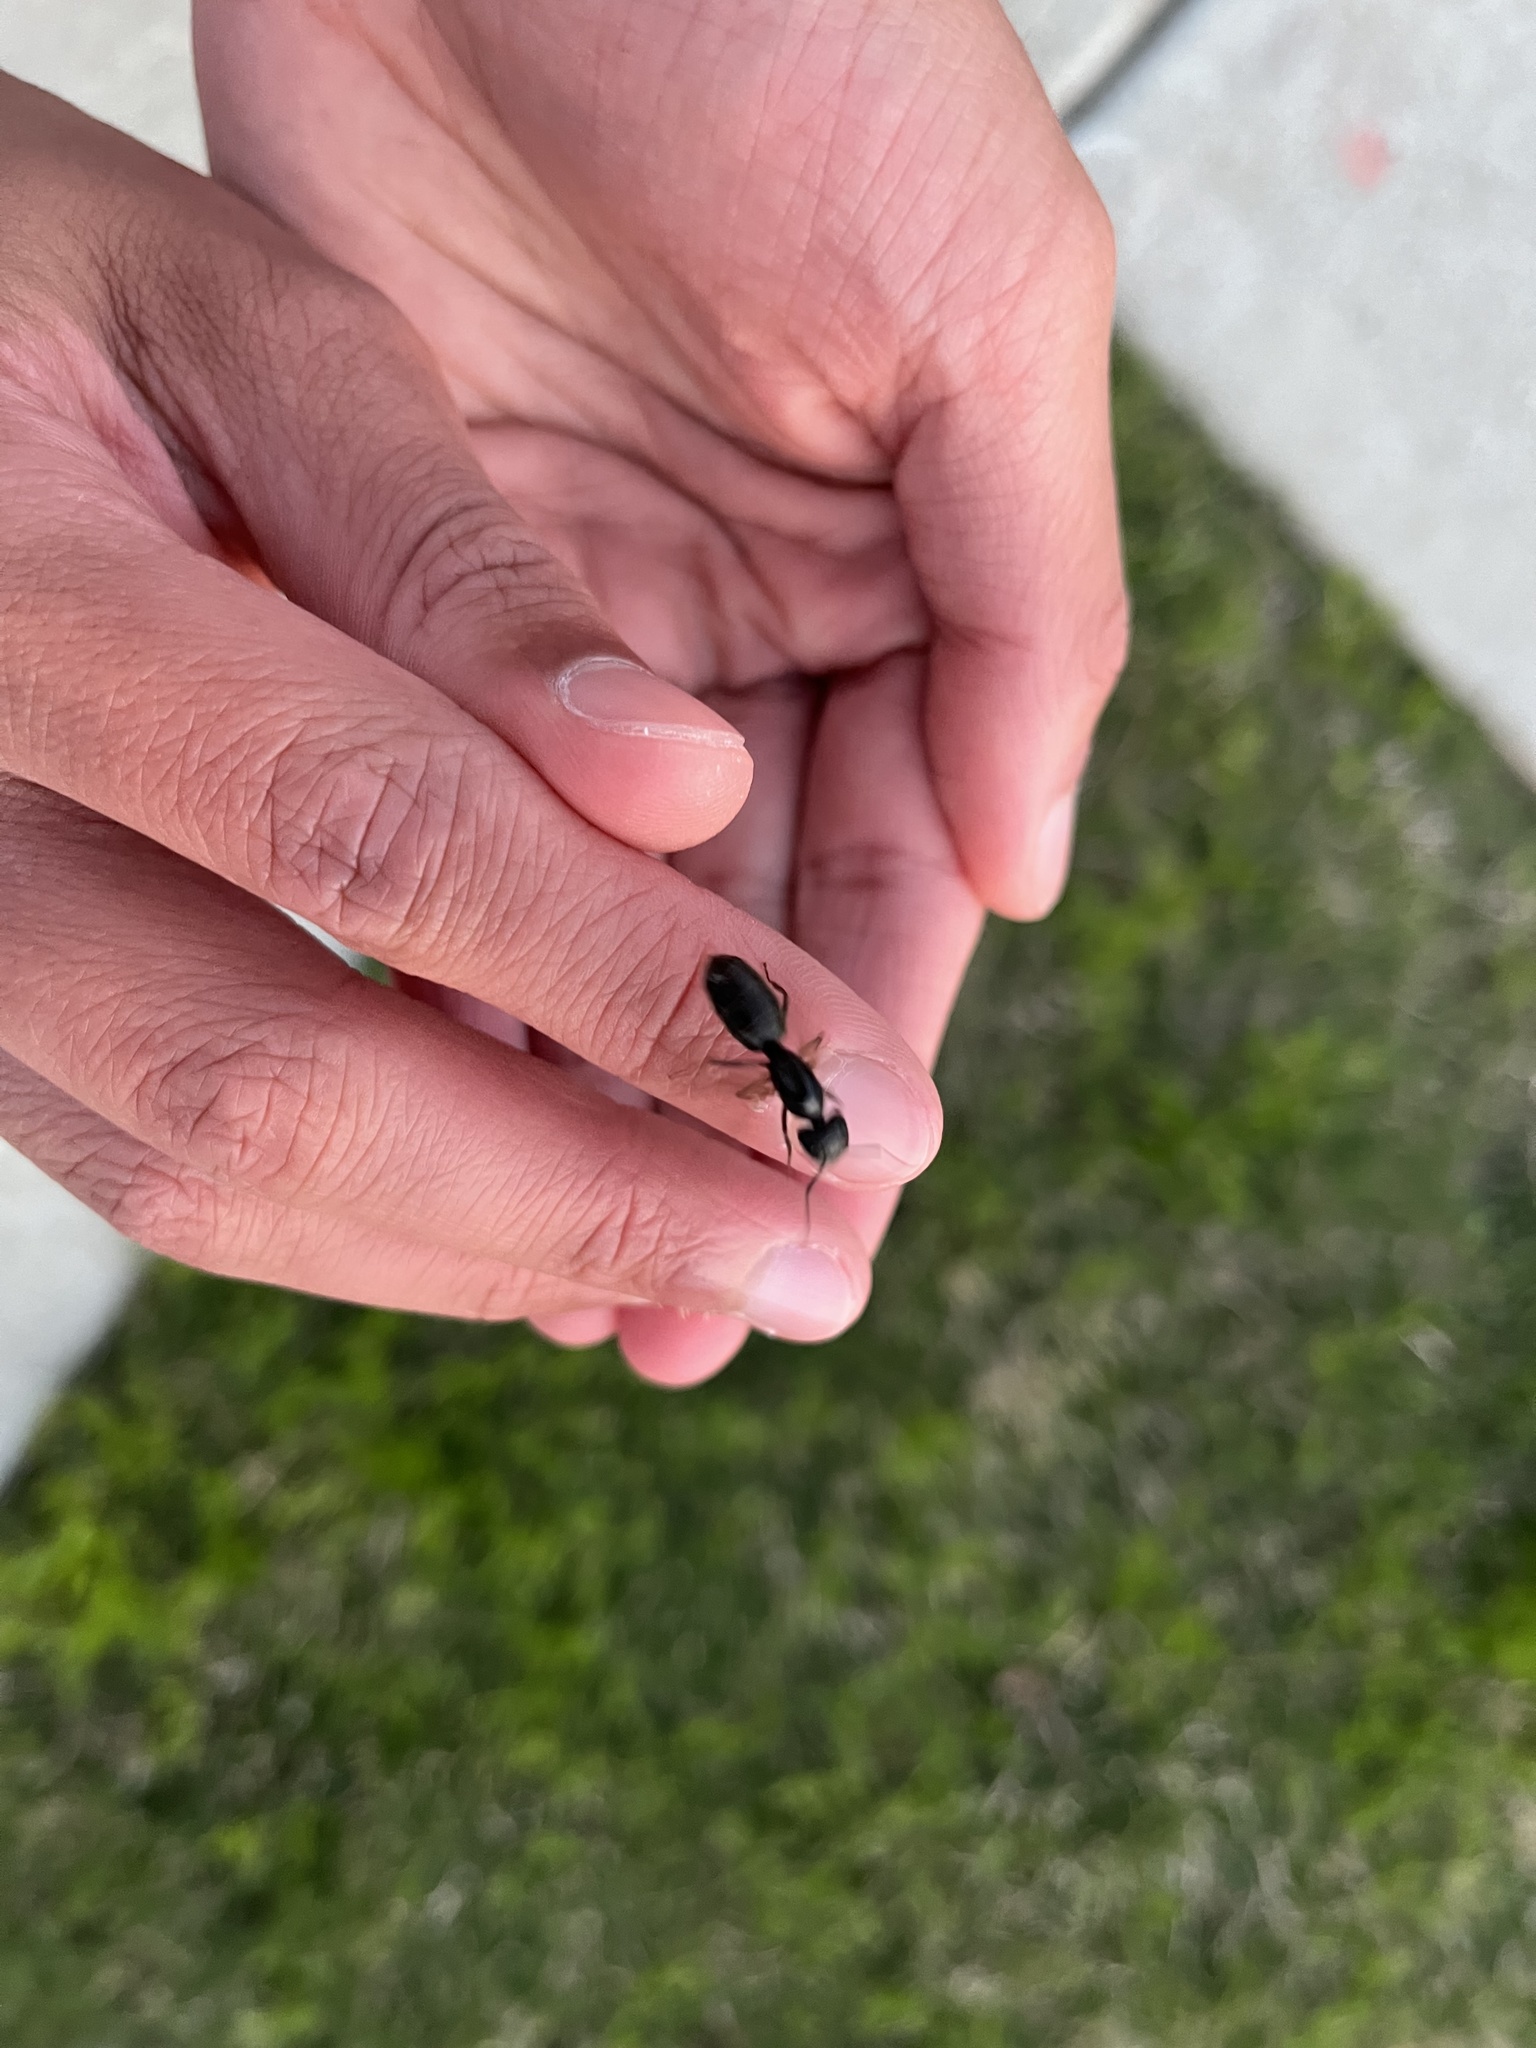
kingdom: Animalia
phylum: Arthropoda
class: Insecta
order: Hymenoptera
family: Formicidae
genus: Camponotus
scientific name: Camponotus pennsylvanicus
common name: Black carpenter ant
